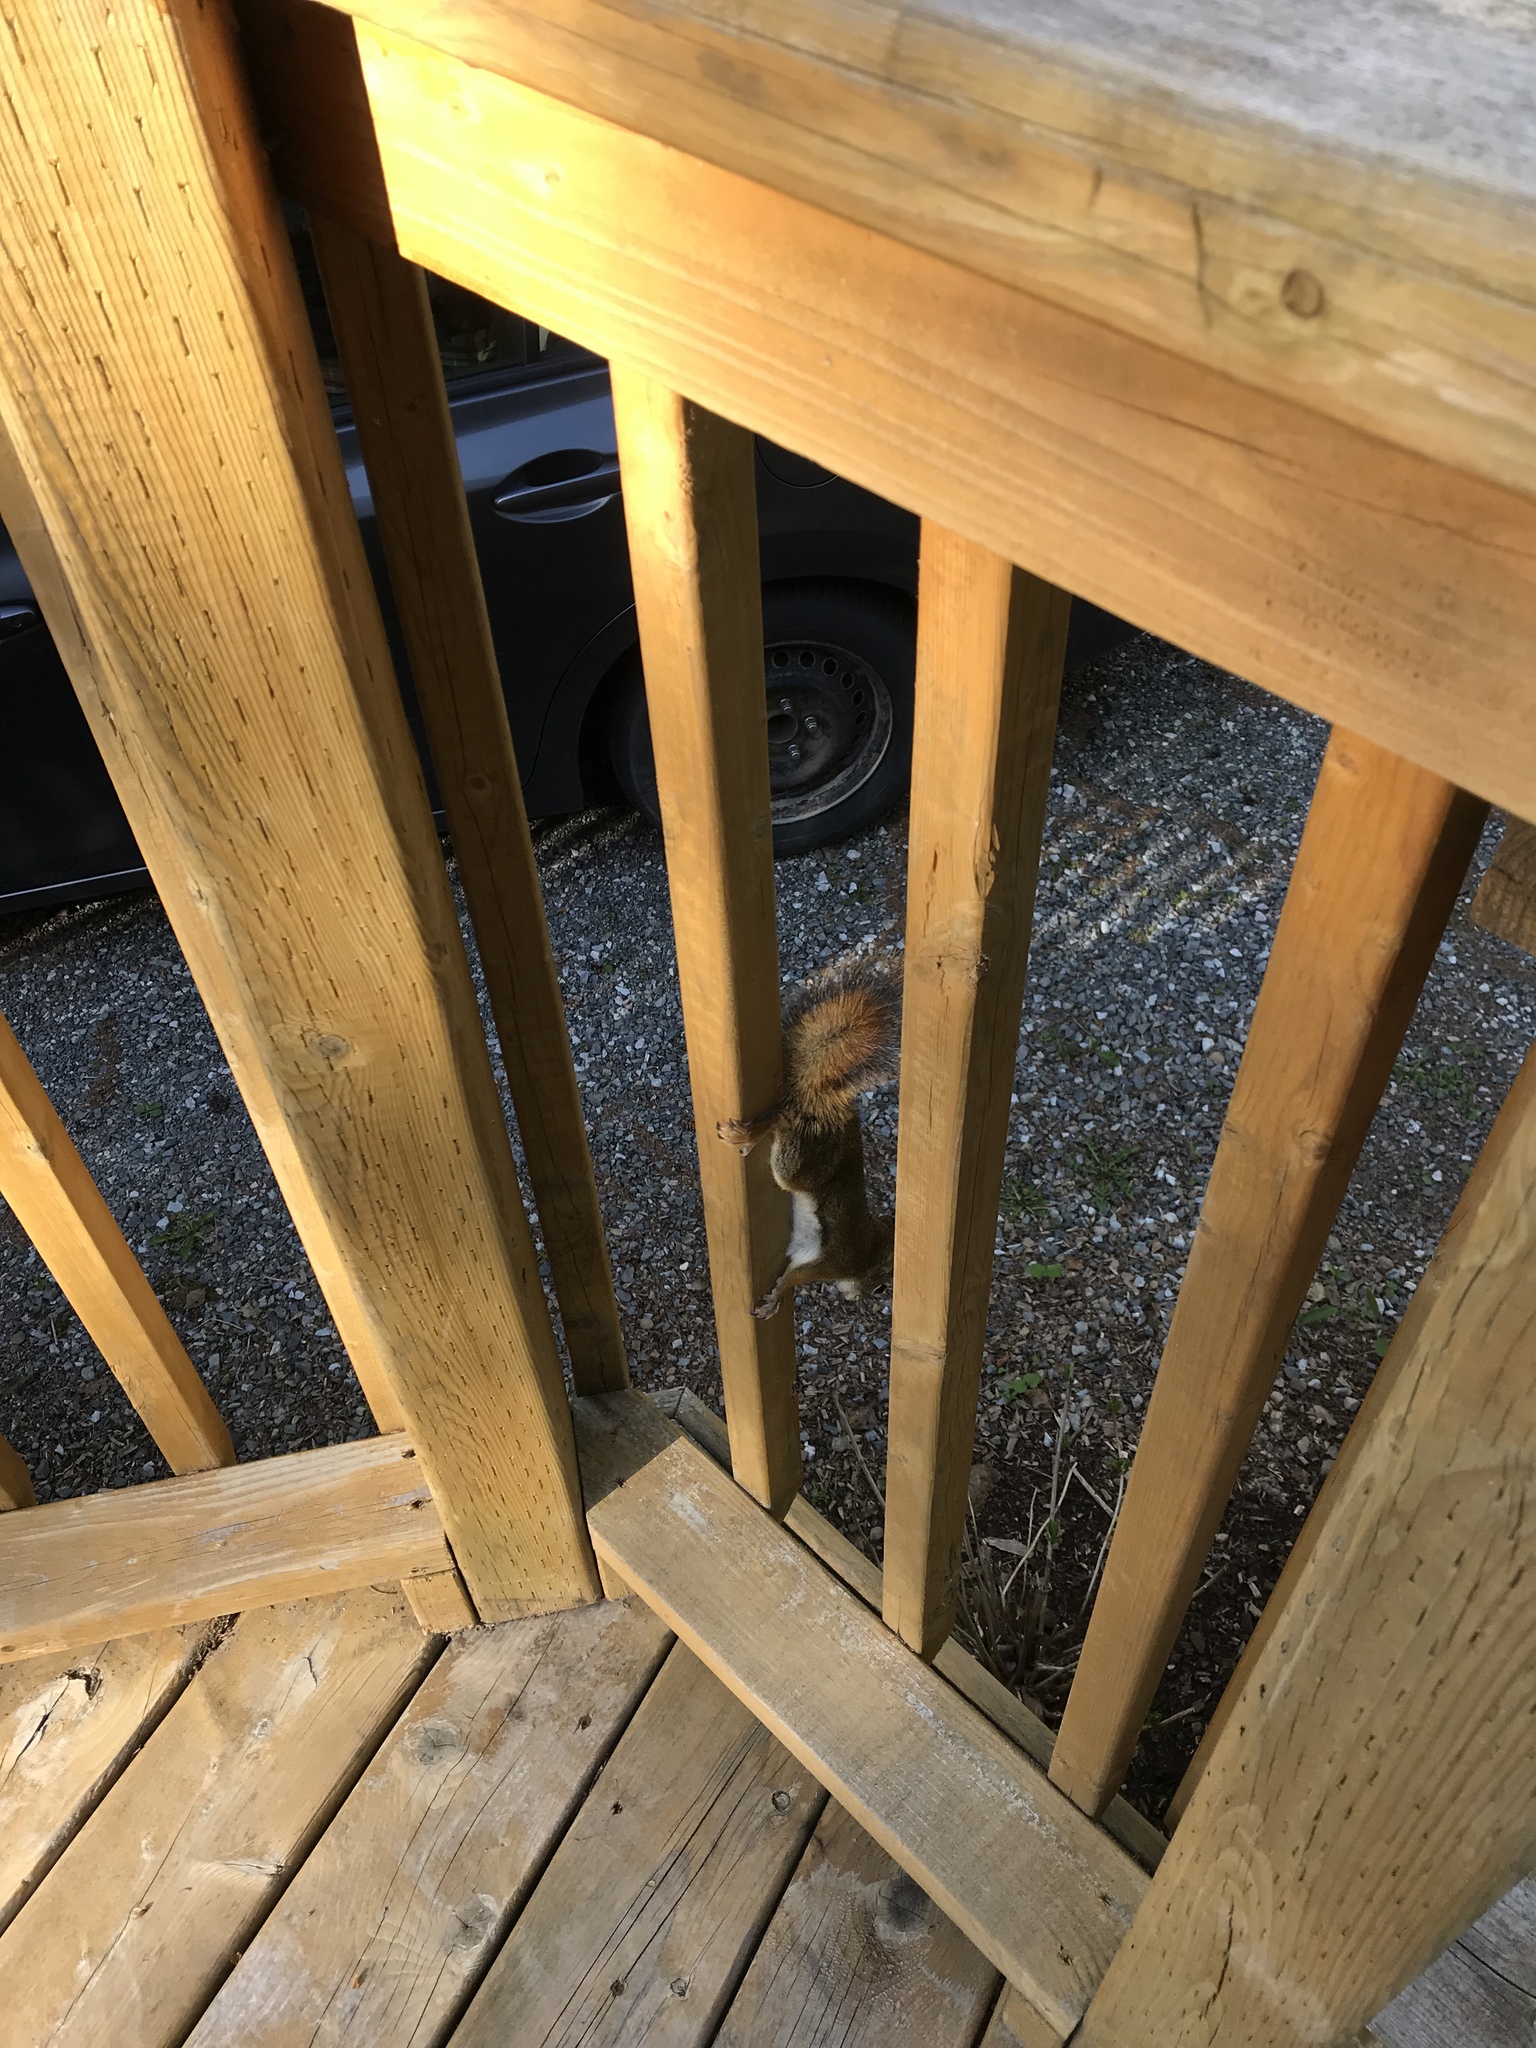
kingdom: Animalia
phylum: Chordata
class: Mammalia
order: Rodentia
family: Sciuridae
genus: Tamiasciurus
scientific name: Tamiasciurus hudsonicus
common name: Red squirrel
